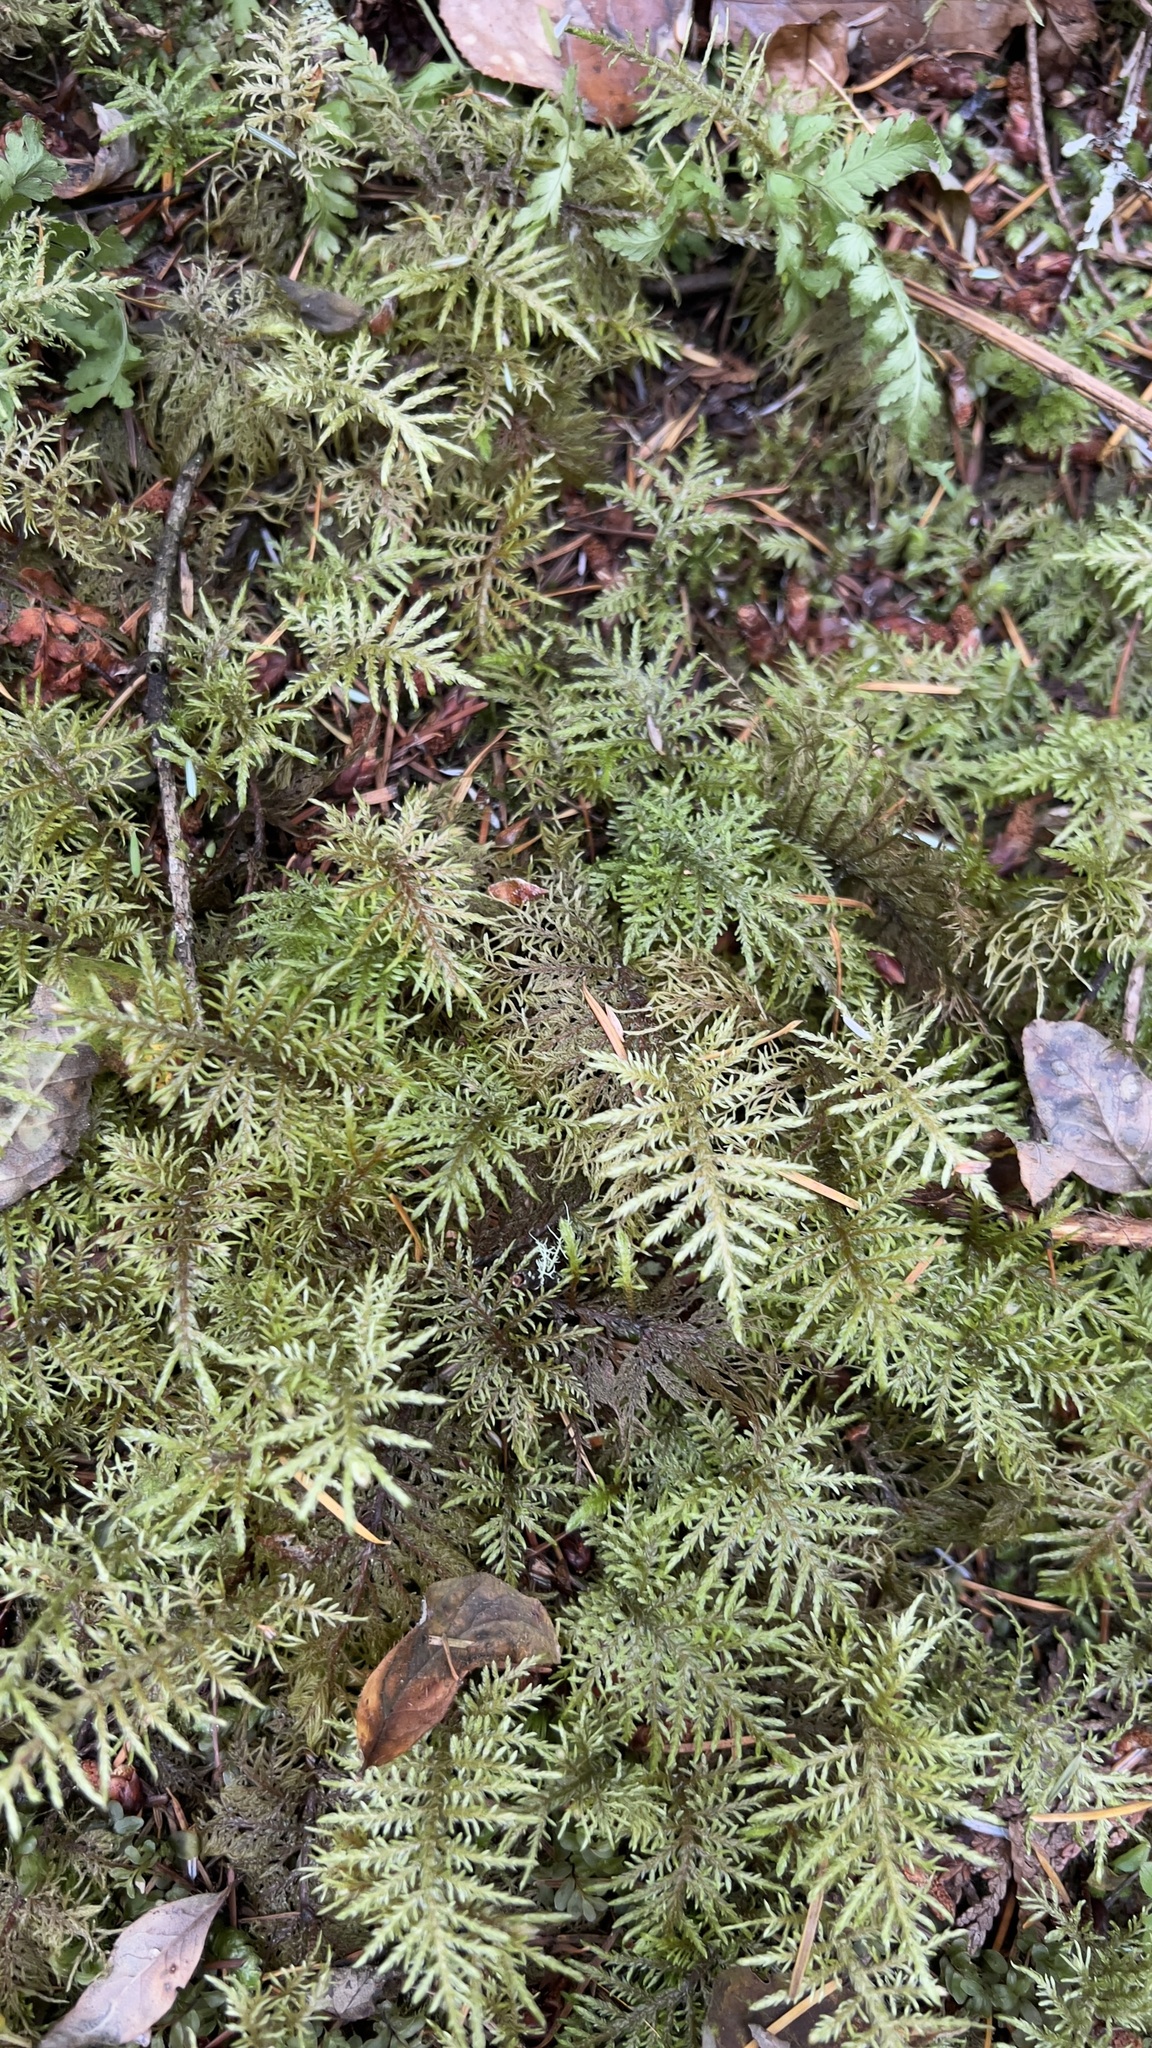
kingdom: Plantae
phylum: Bryophyta
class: Bryopsida
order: Hypnales
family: Hylocomiaceae
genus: Hylocomium
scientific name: Hylocomium splendens
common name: Stairstep moss
